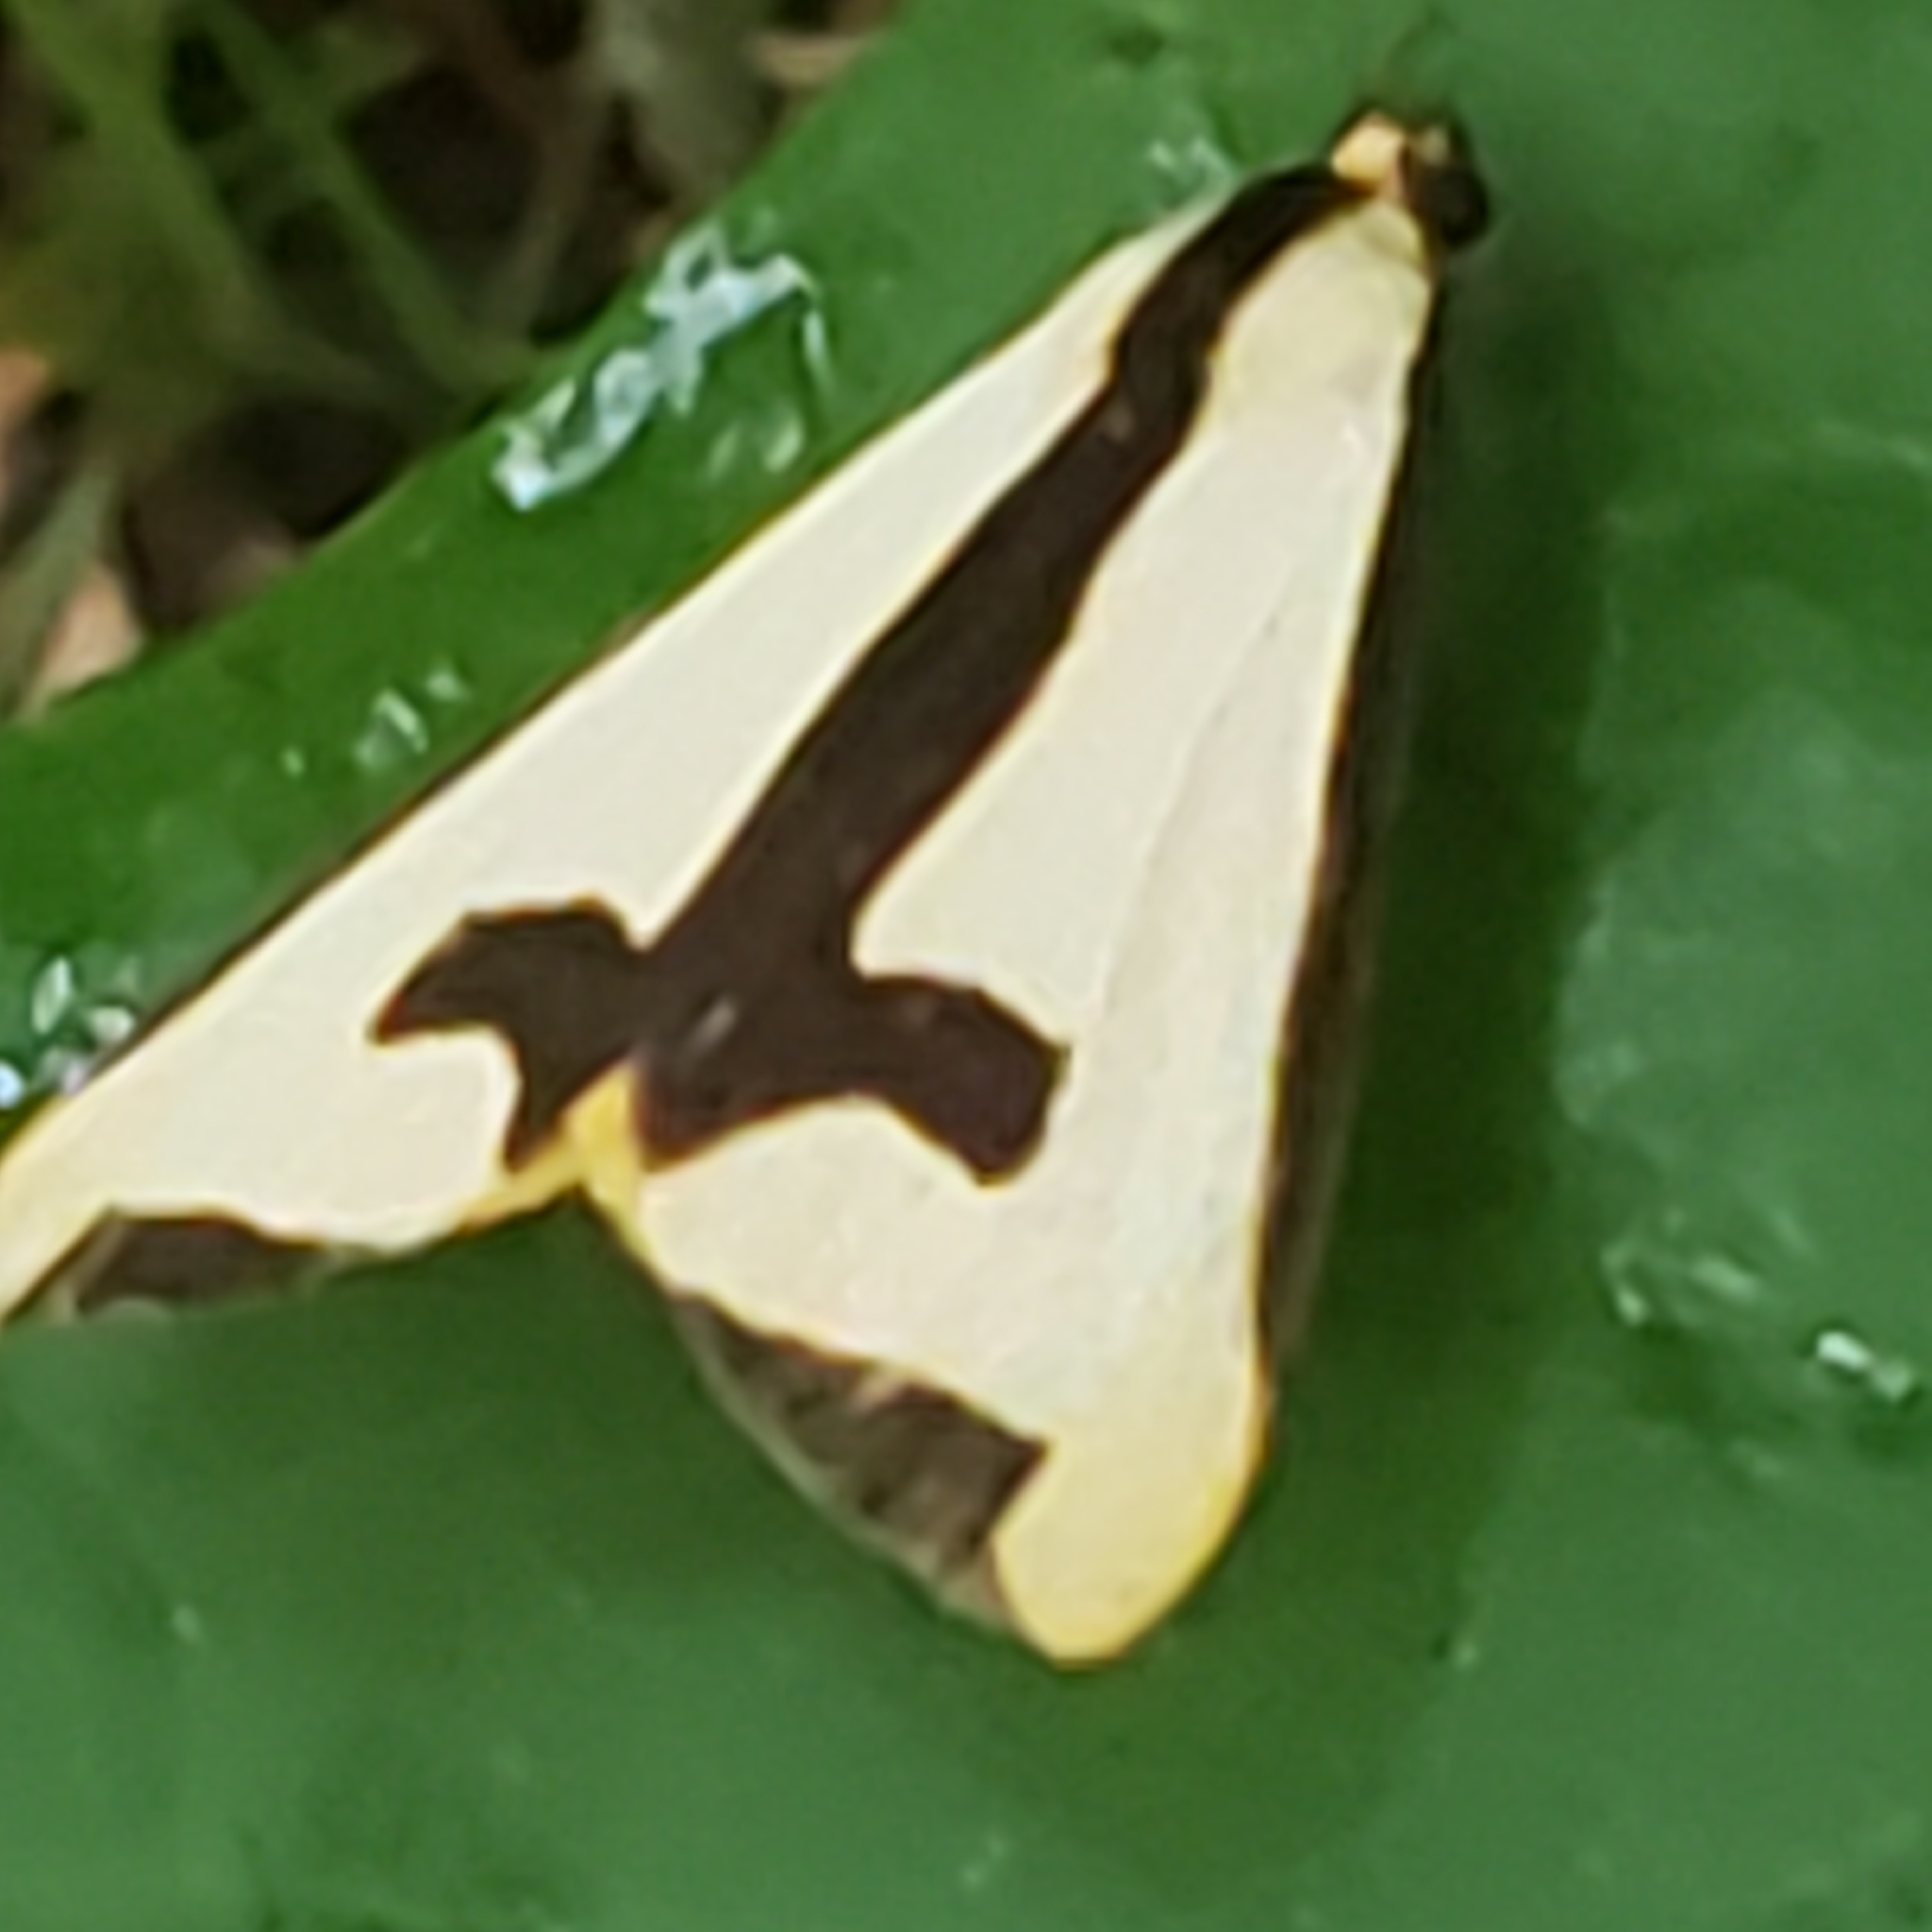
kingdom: Animalia
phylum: Arthropoda
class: Insecta
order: Lepidoptera
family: Erebidae
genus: Haploa
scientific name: Haploa clymene
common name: Clymene moth
